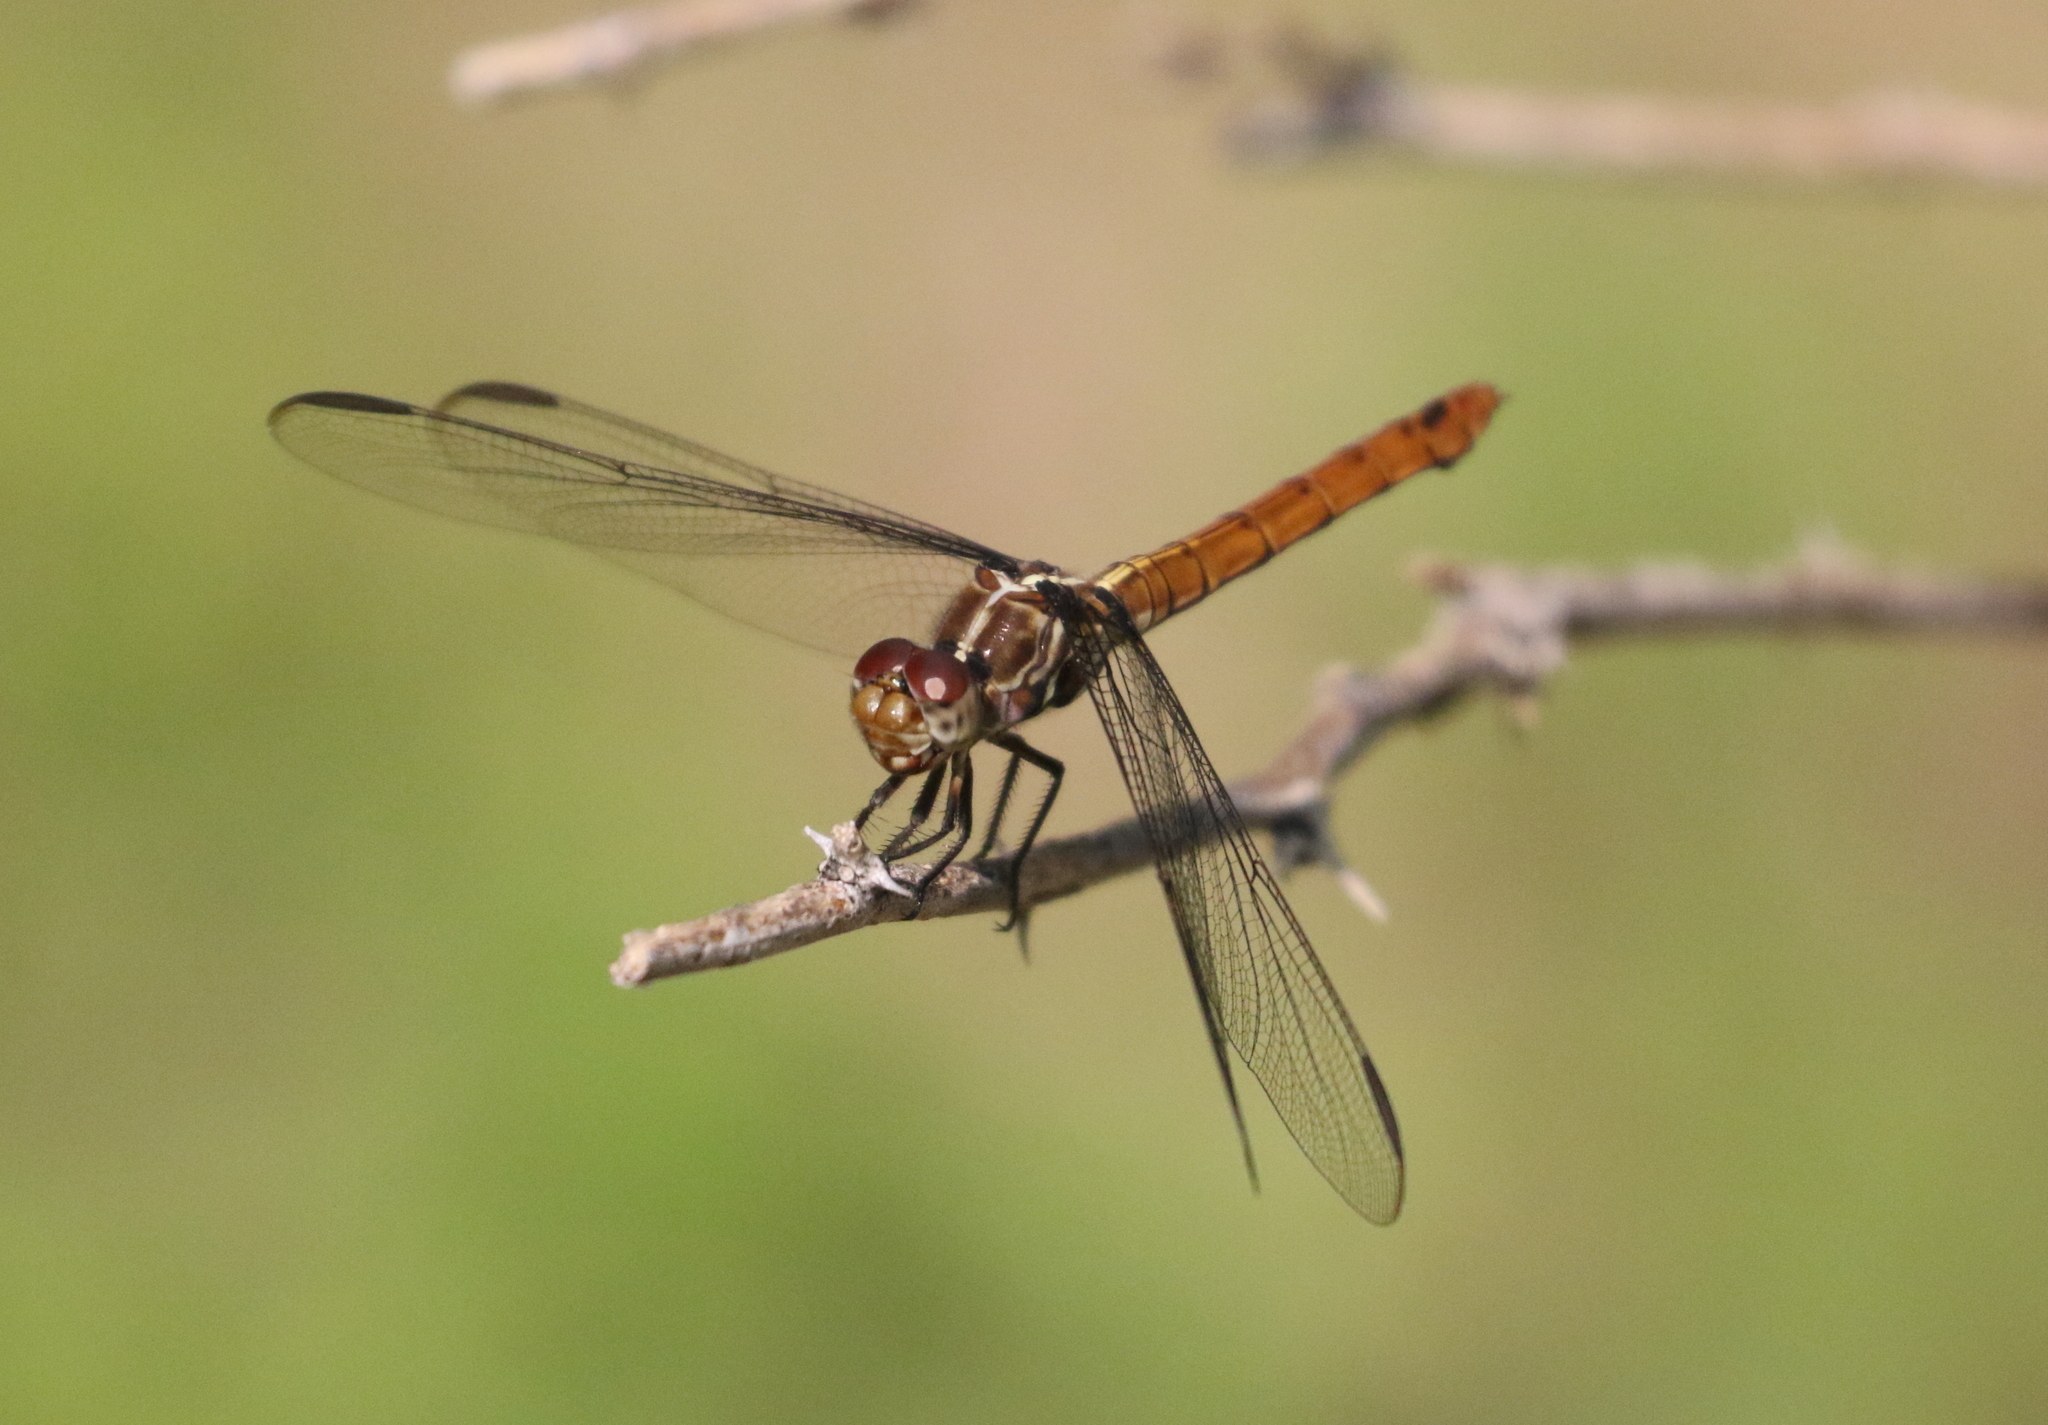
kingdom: Animalia
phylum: Arthropoda
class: Insecta
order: Odonata
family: Libellulidae
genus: Orthemis
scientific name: Orthemis ferruginea
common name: Roseate skimmer
